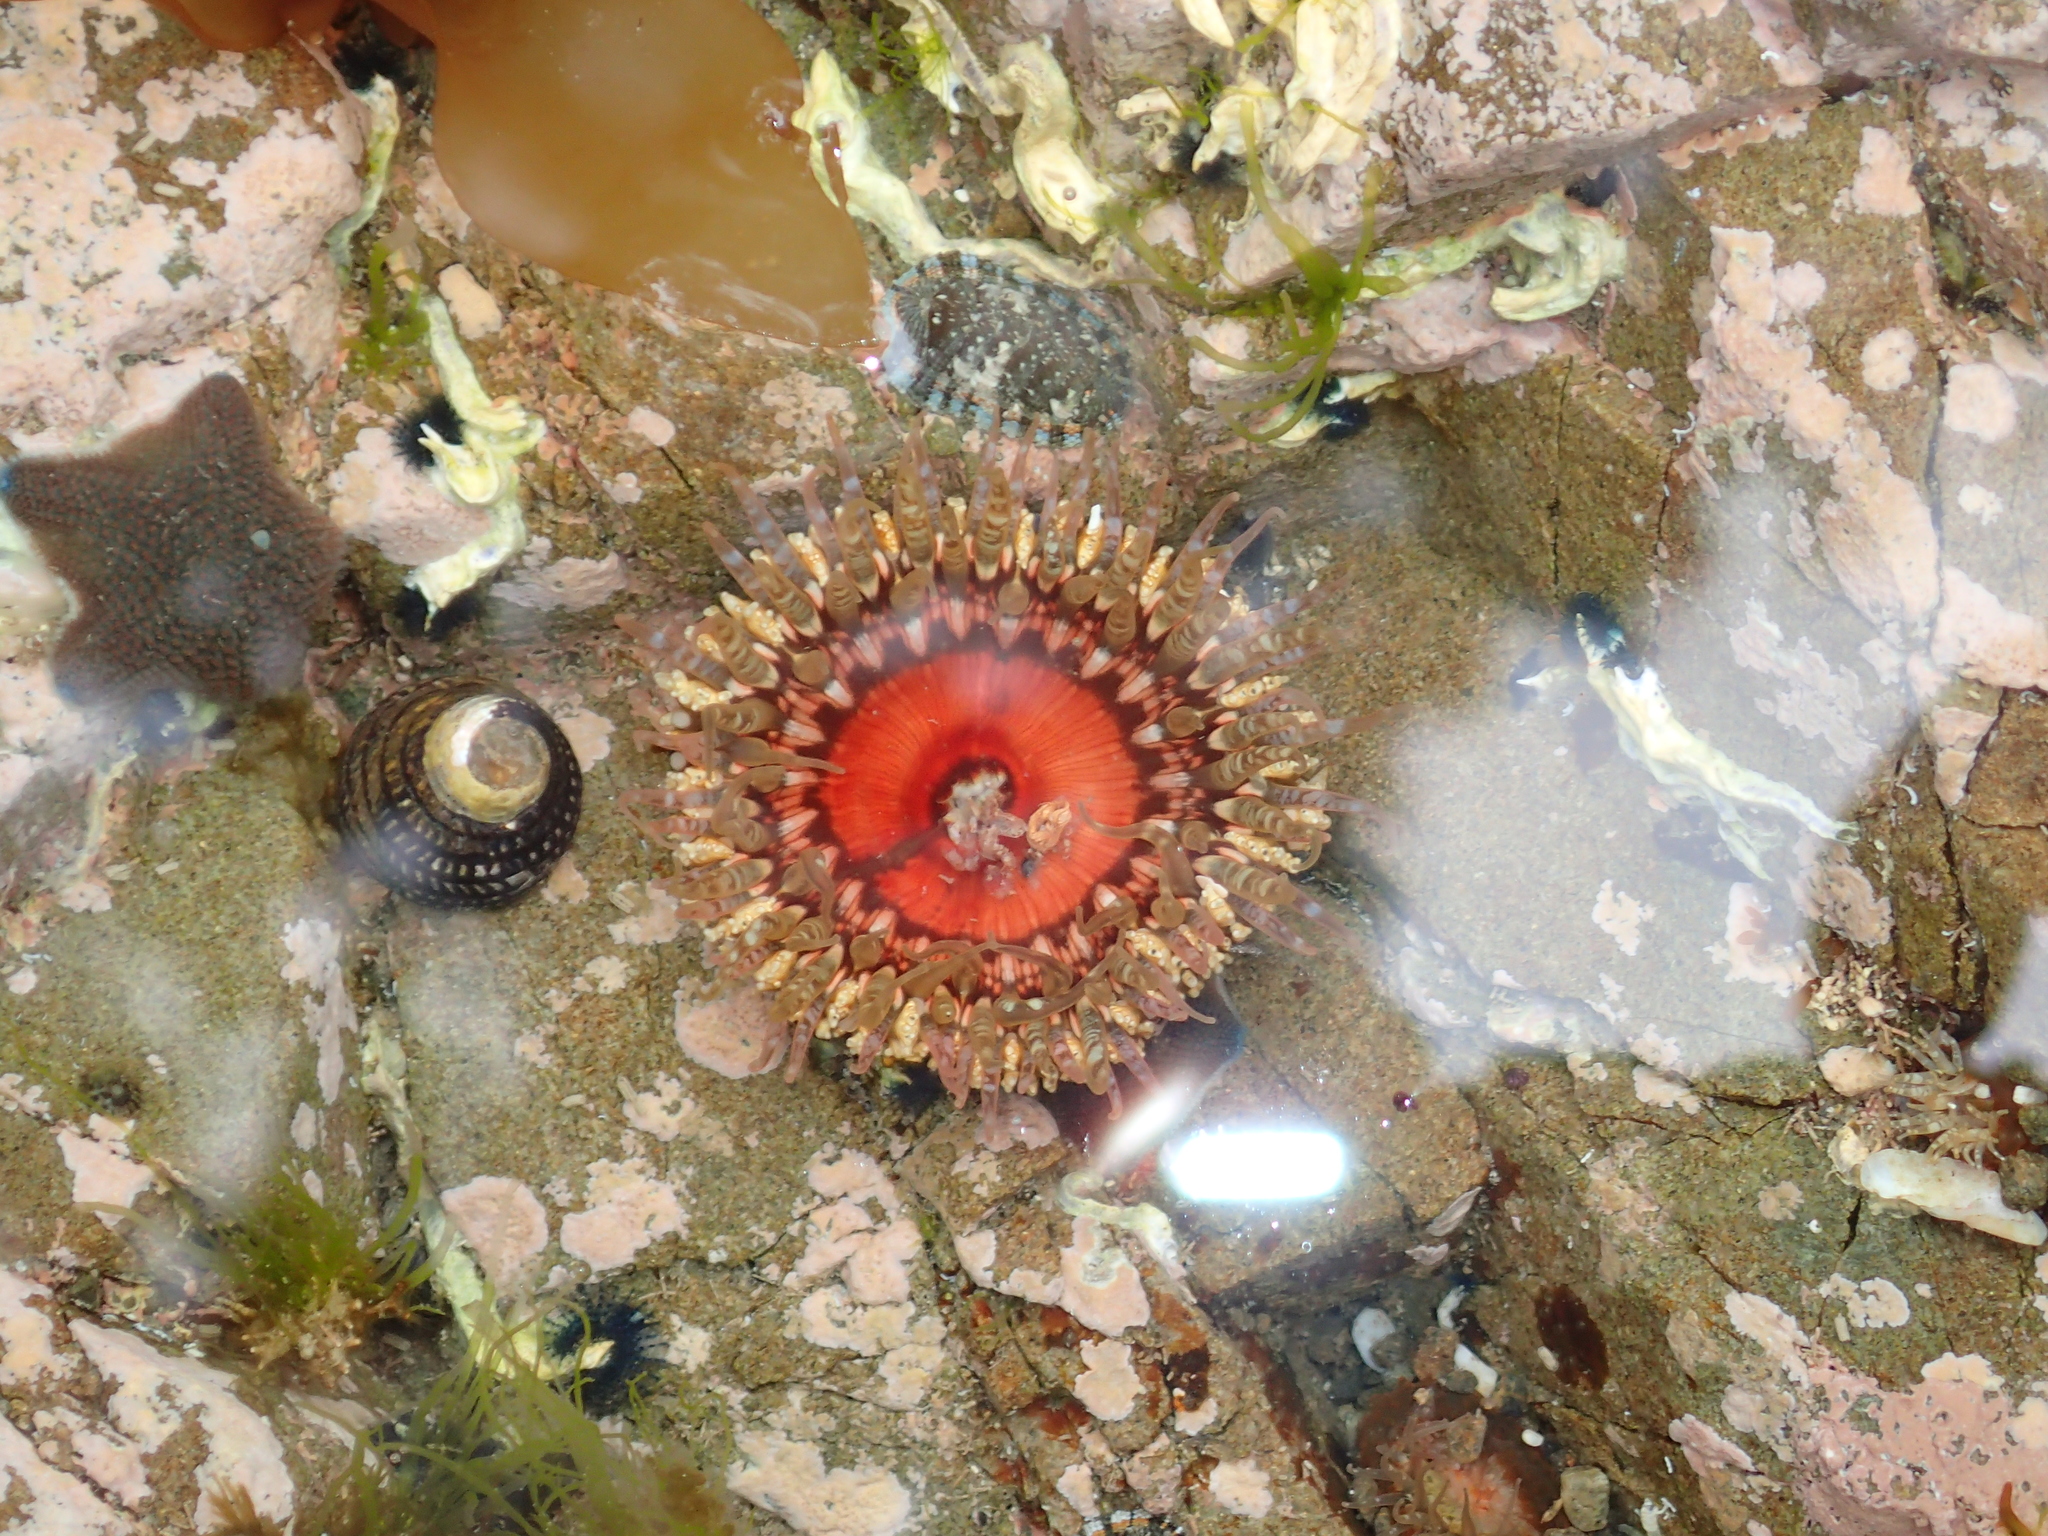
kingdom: Animalia
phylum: Cnidaria
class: Anthozoa
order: Actiniaria
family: Actiniidae
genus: Oulactis
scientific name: Oulactis muscosa
